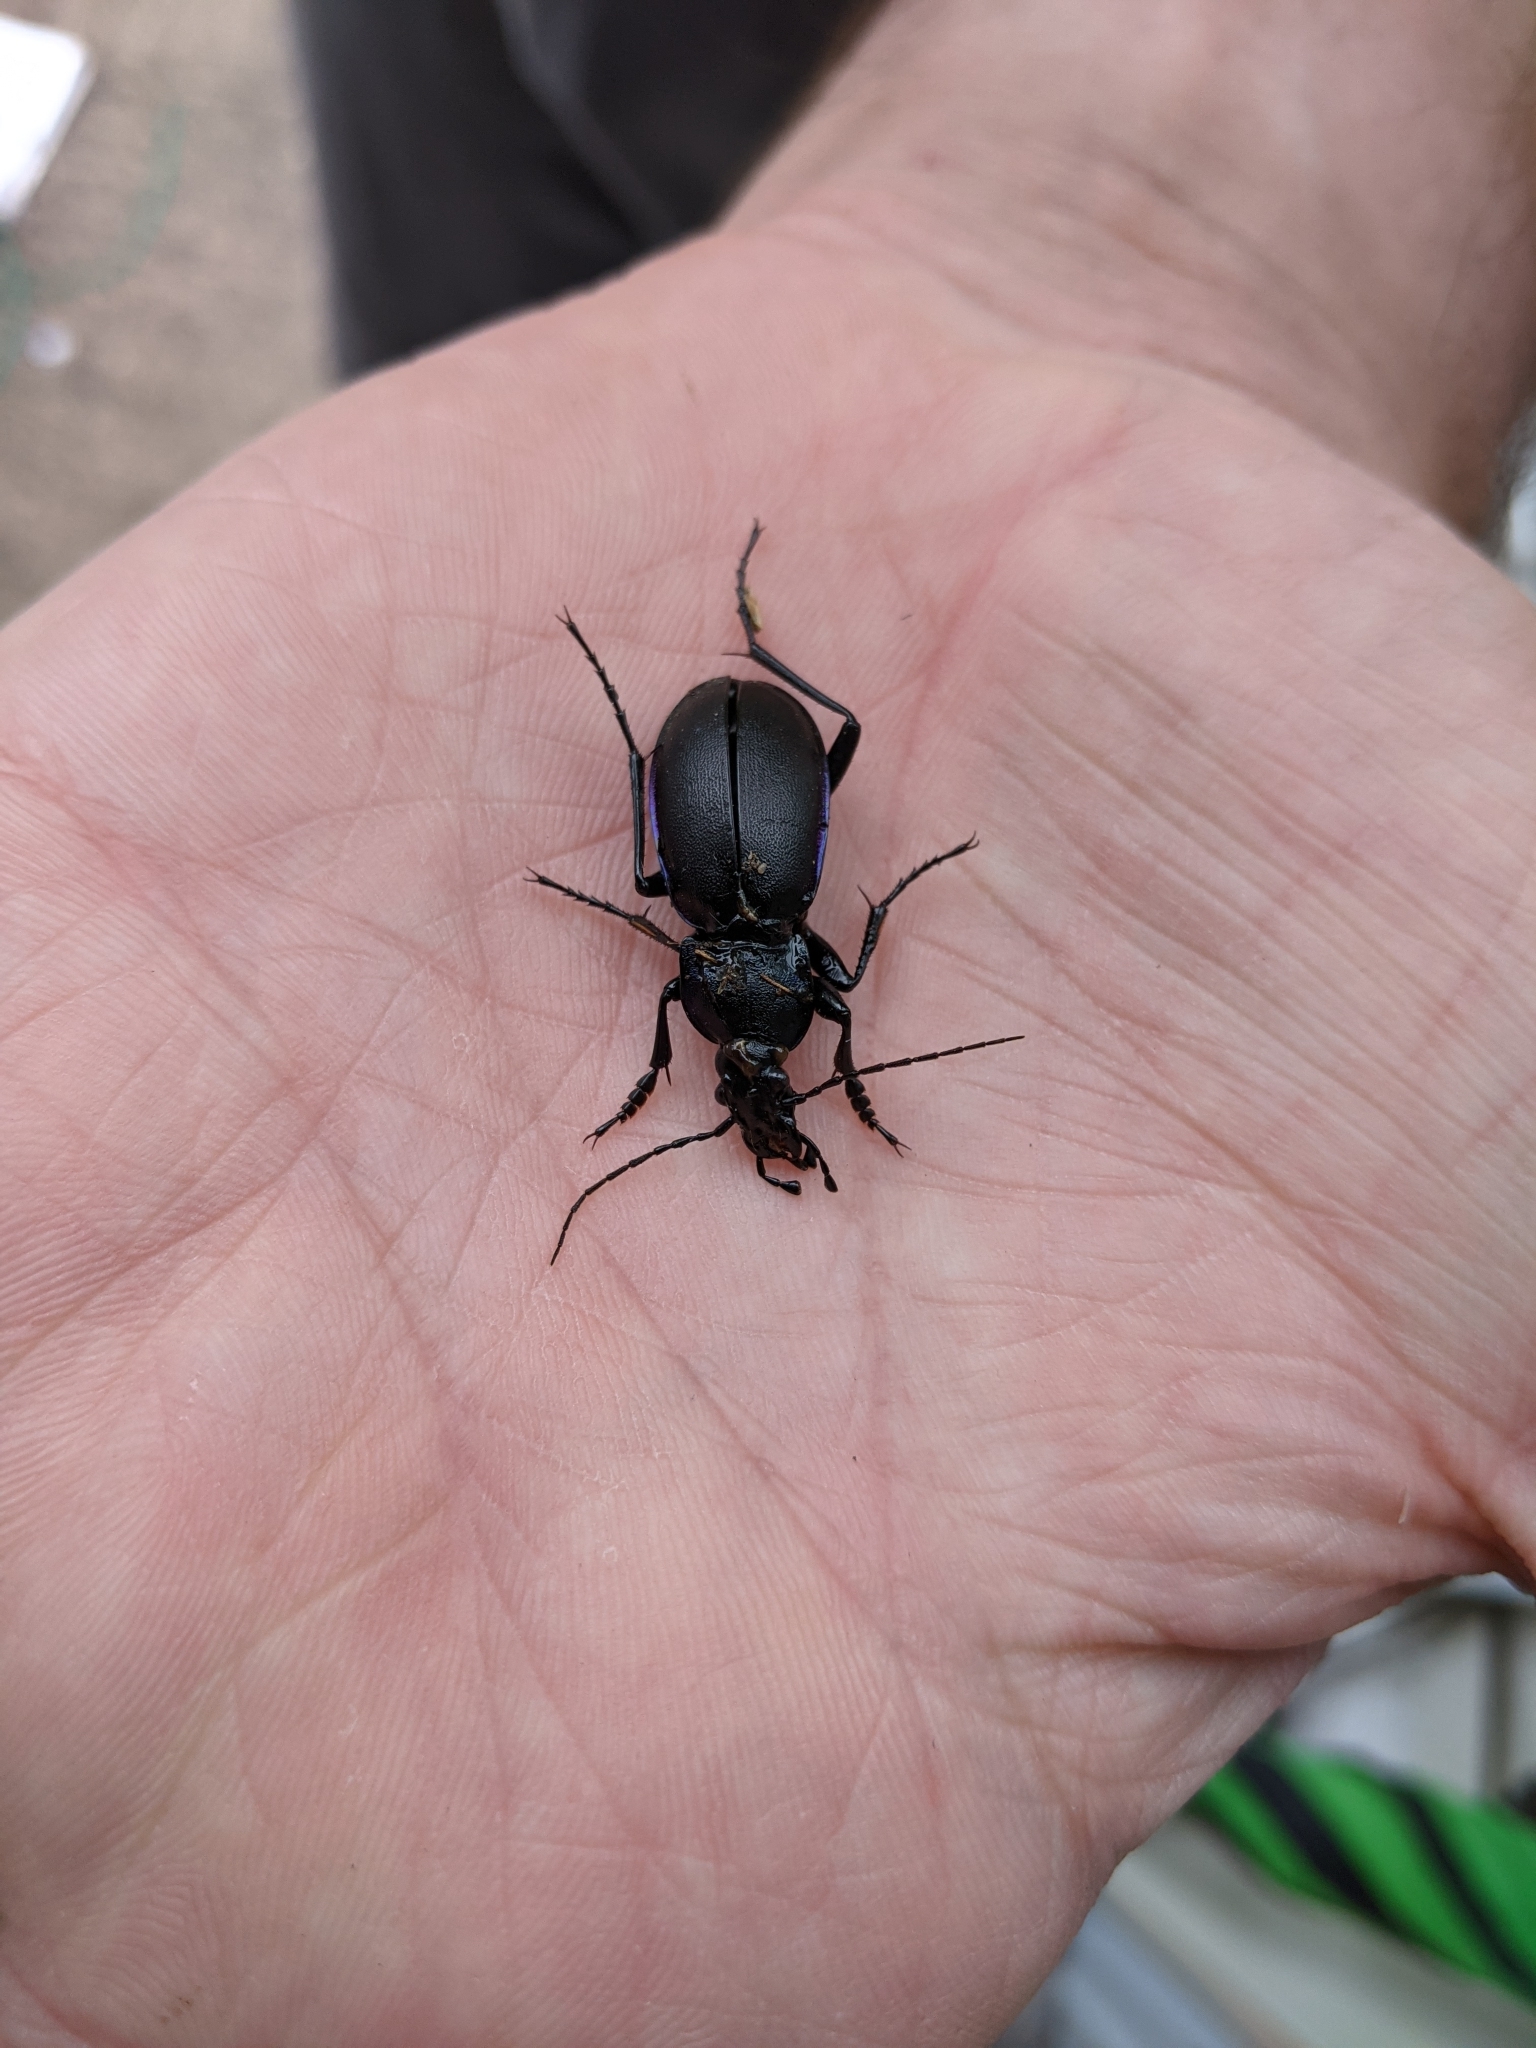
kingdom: Animalia
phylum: Arthropoda
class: Insecta
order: Coleoptera
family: Carabidae
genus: Carabus
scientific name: Carabus violaceus
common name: Violet ground beetle
